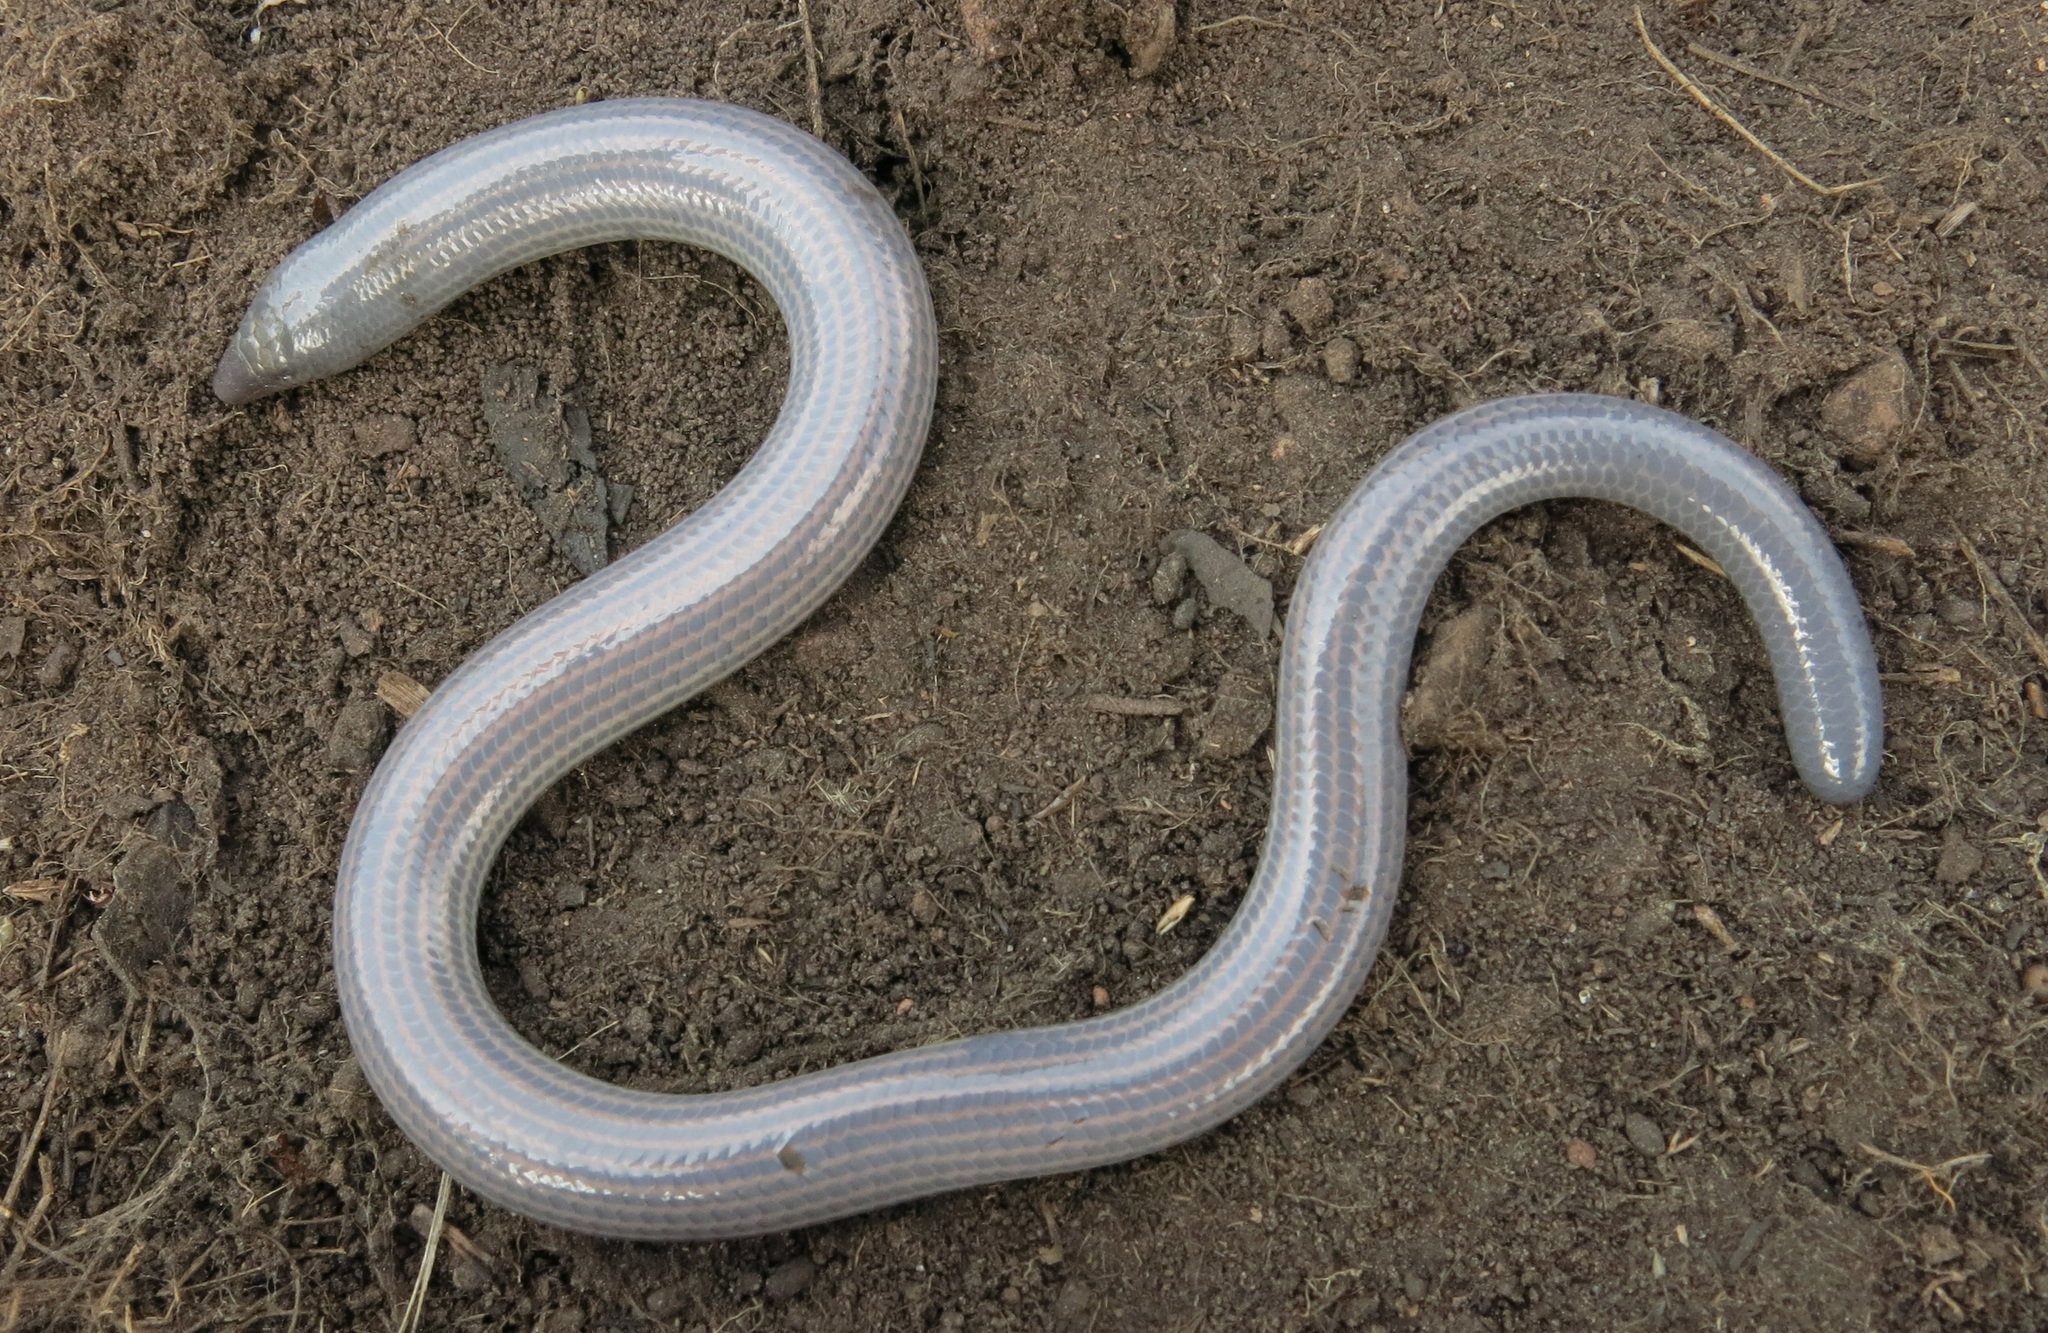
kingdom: Animalia
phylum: Chordata
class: Squamata
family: Scincidae
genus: Acontias
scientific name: Acontias rieppeli
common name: Woodbush legless skink
